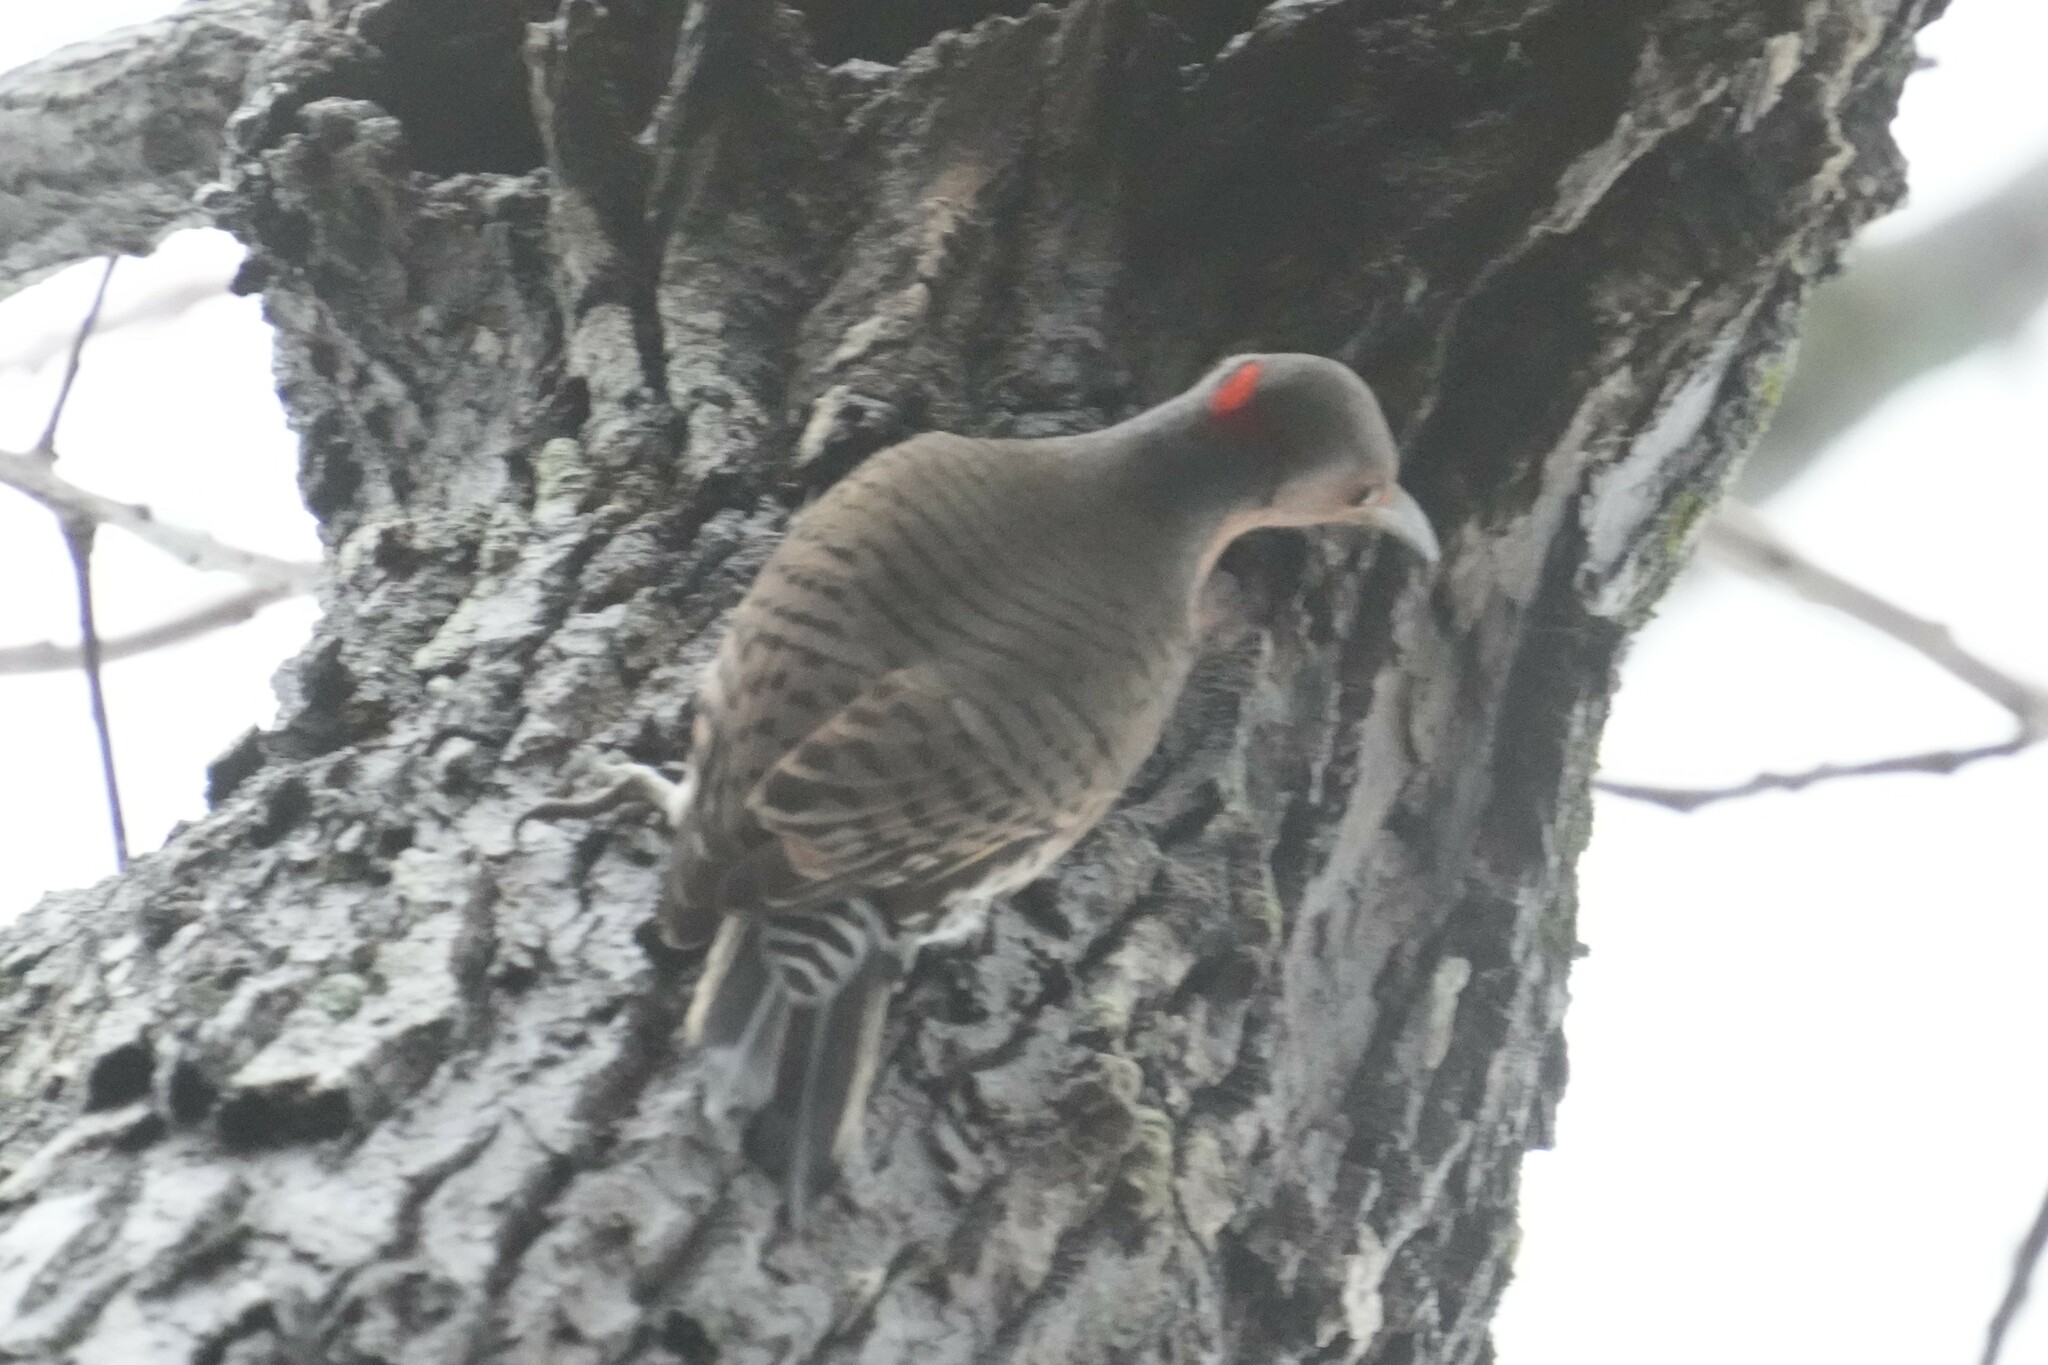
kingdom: Animalia
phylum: Chordata
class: Aves
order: Piciformes
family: Picidae
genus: Colaptes
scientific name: Colaptes auratus
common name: Northern flicker
